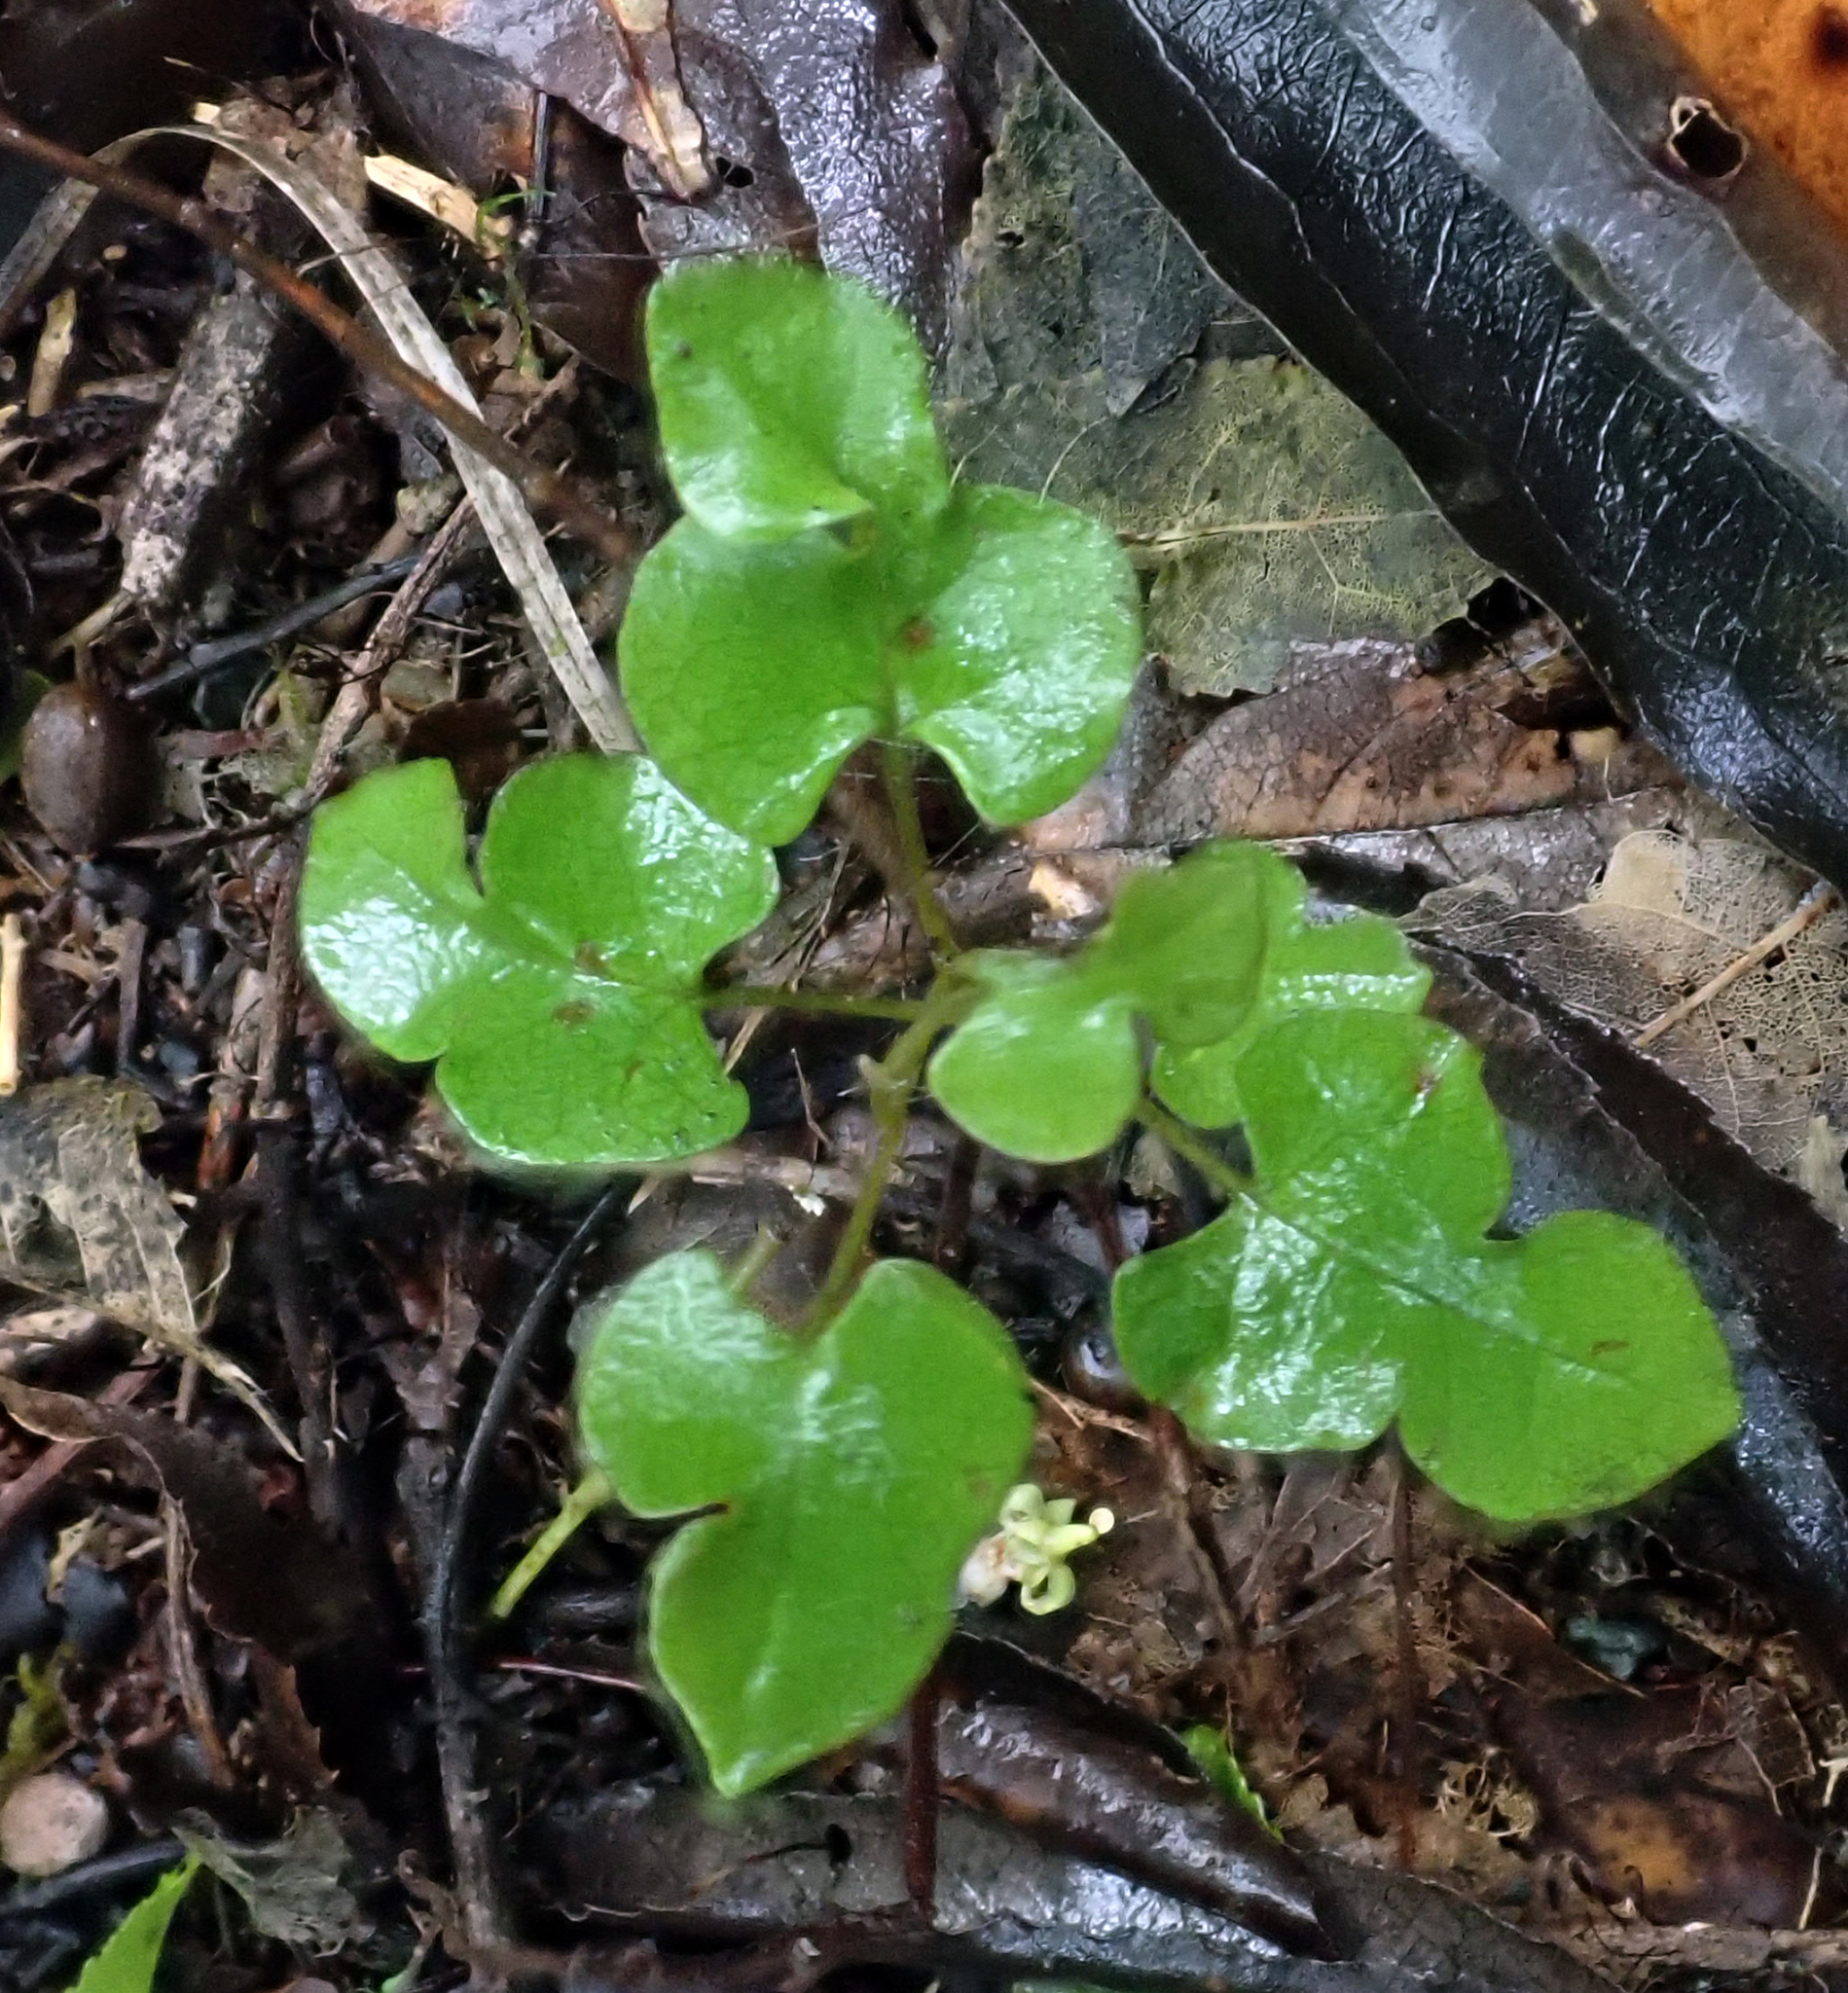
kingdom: Plantae
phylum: Tracheophyta
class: Magnoliopsida
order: Caryophyllales
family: Polygonaceae
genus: Muehlenbeckia
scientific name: Muehlenbeckia australis
